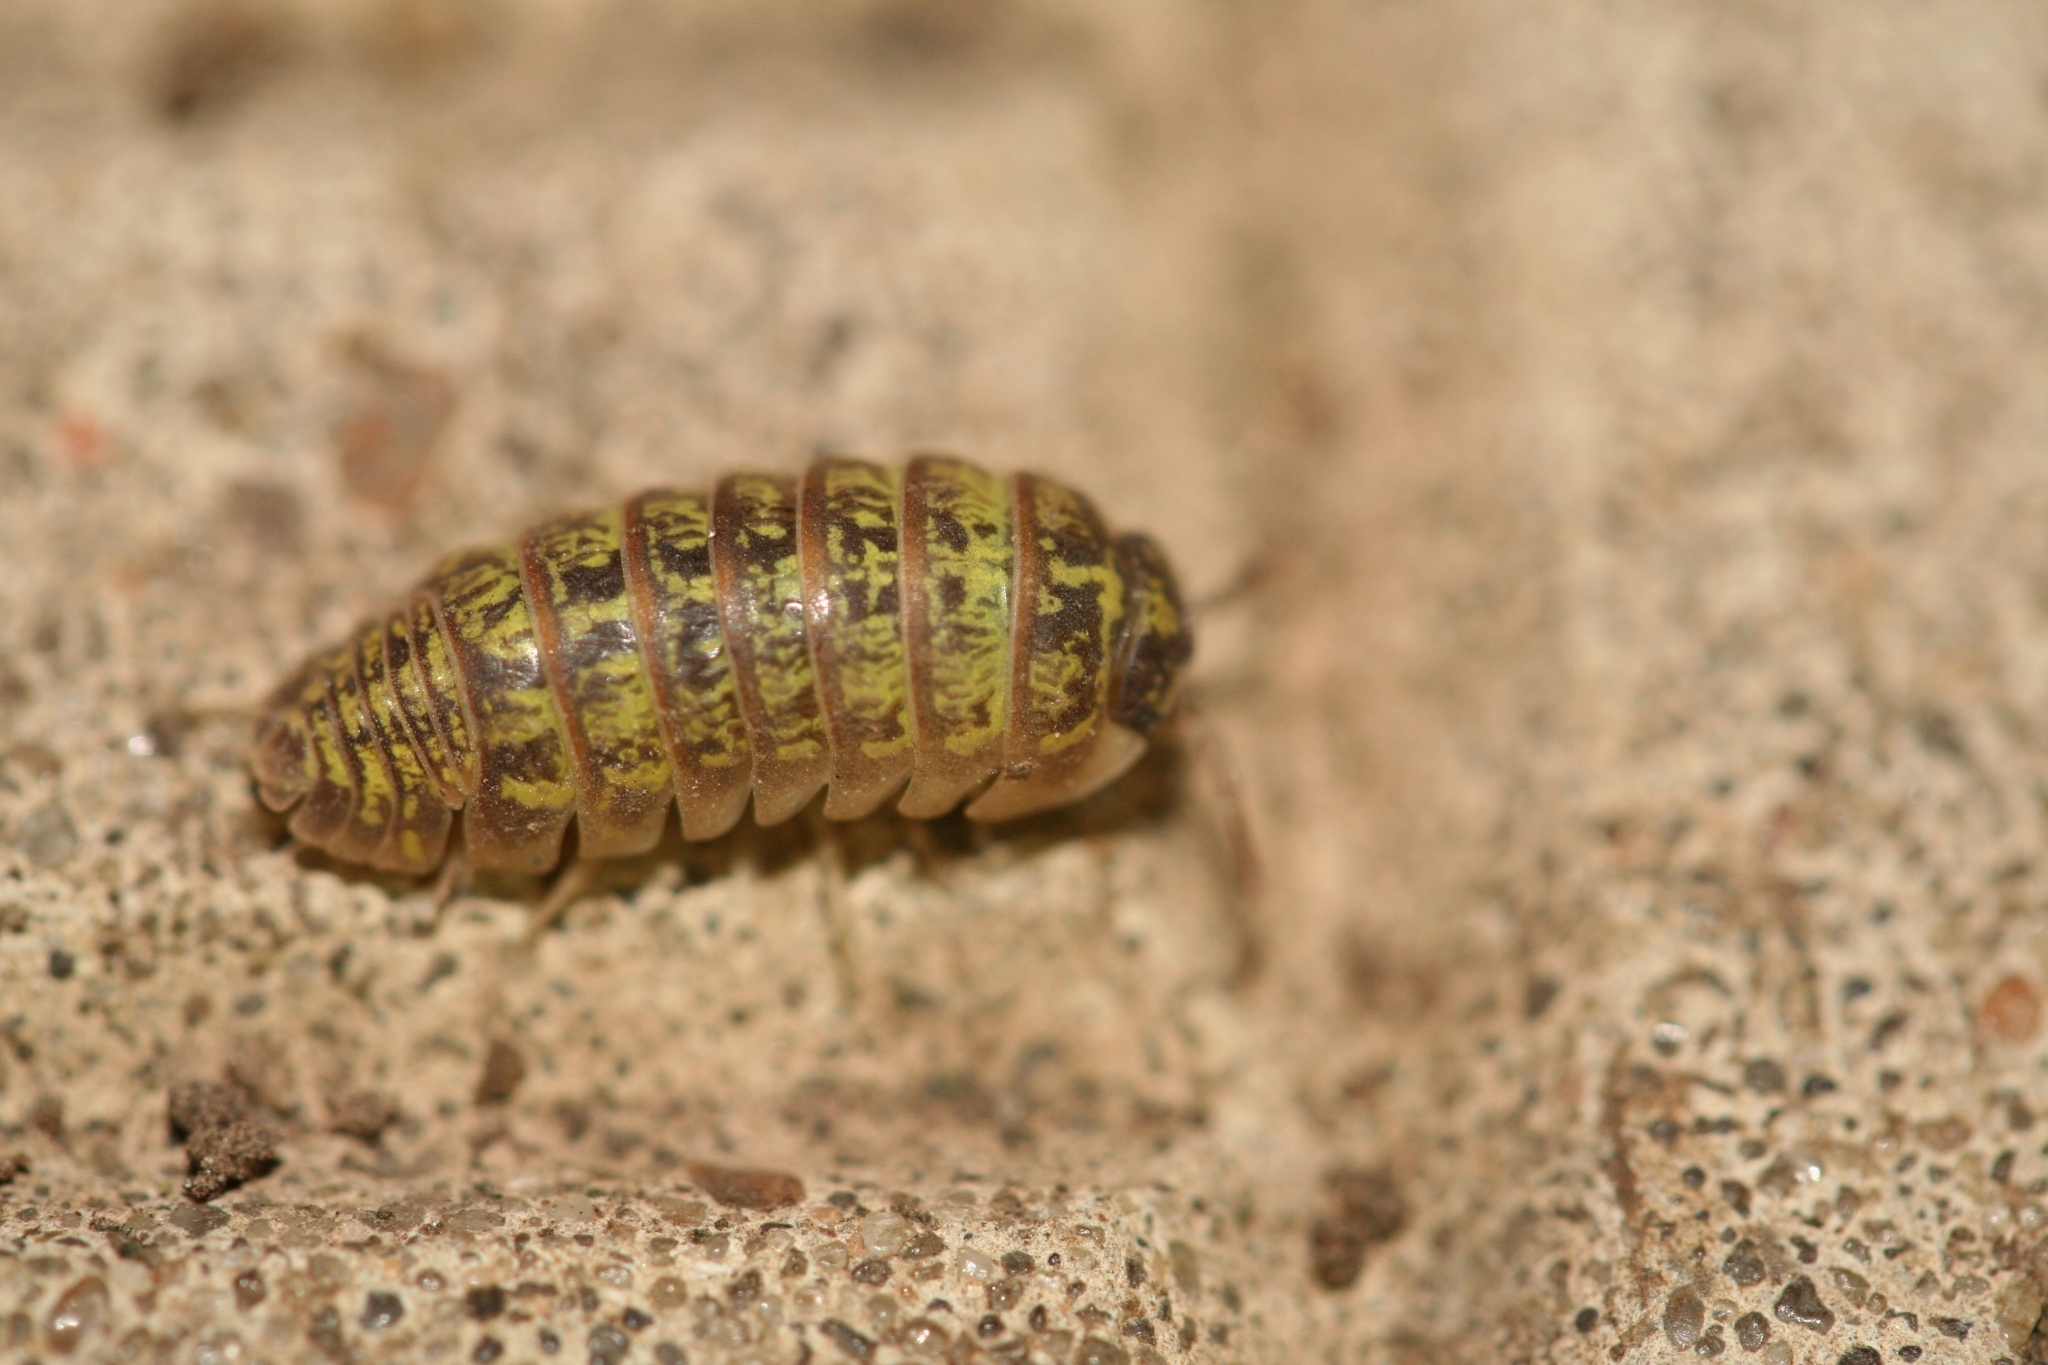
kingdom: Animalia
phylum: Arthropoda
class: Malacostraca
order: Isopoda
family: Armadillidiidae
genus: Armadillidium
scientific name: Armadillidium versicolor
